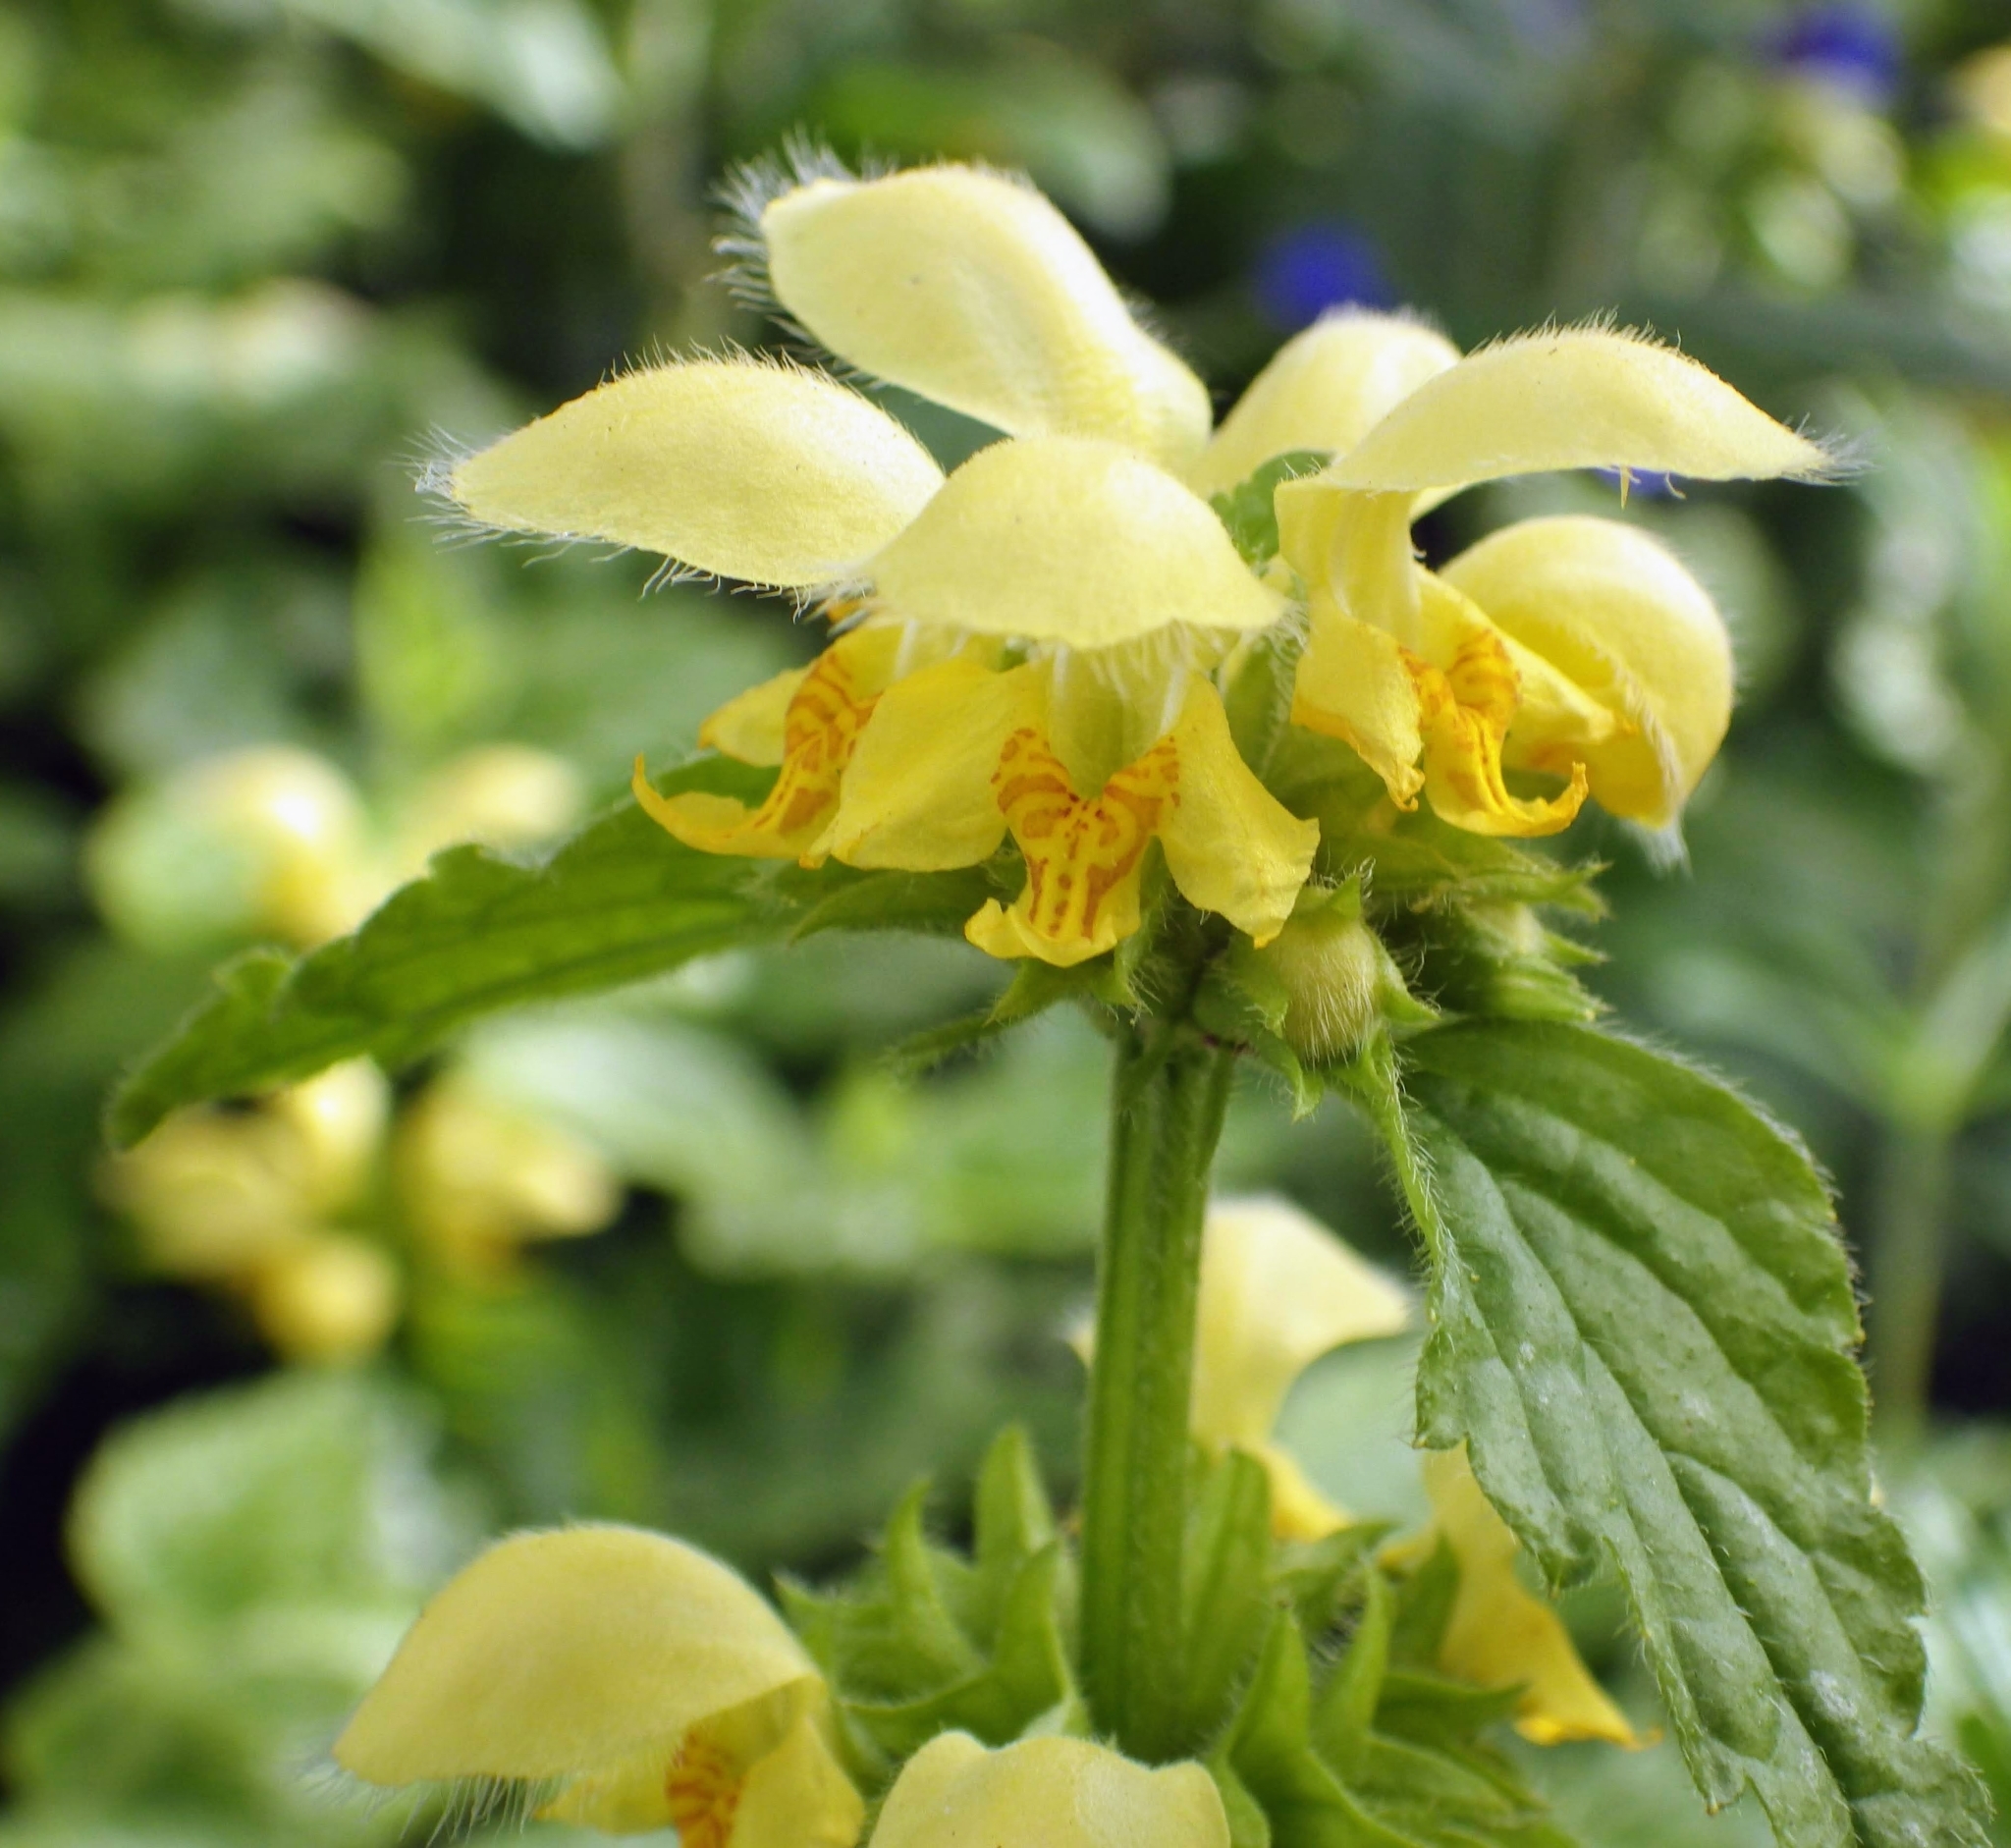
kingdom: Plantae
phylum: Tracheophyta
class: Magnoliopsida
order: Lamiales
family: Lamiaceae
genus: Lamium
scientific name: Lamium galeobdolon
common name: Yellow archangel
